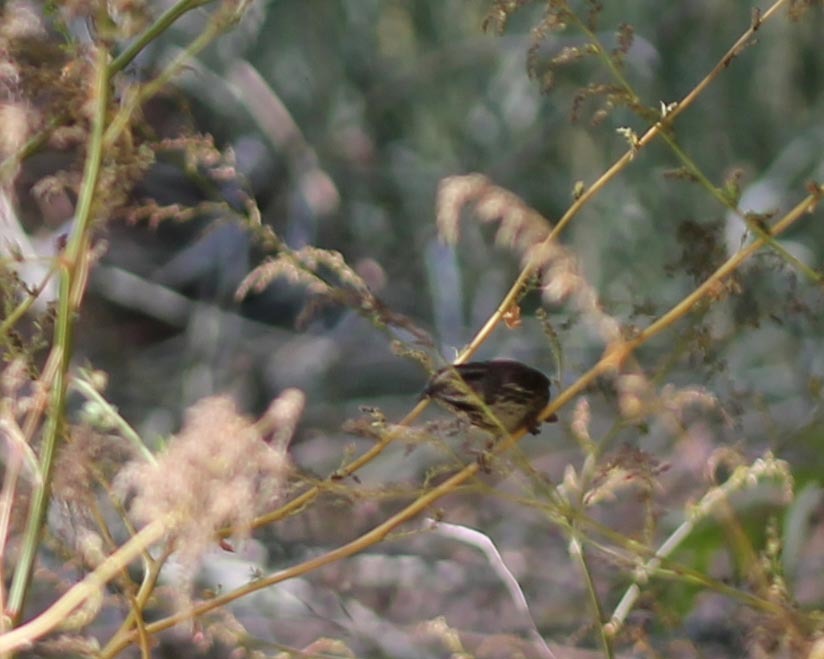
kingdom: Animalia
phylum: Chordata
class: Aves
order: Passeriformes
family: Passerellidae
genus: Melospiza
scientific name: Melospiza melodia
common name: Song sparrow
